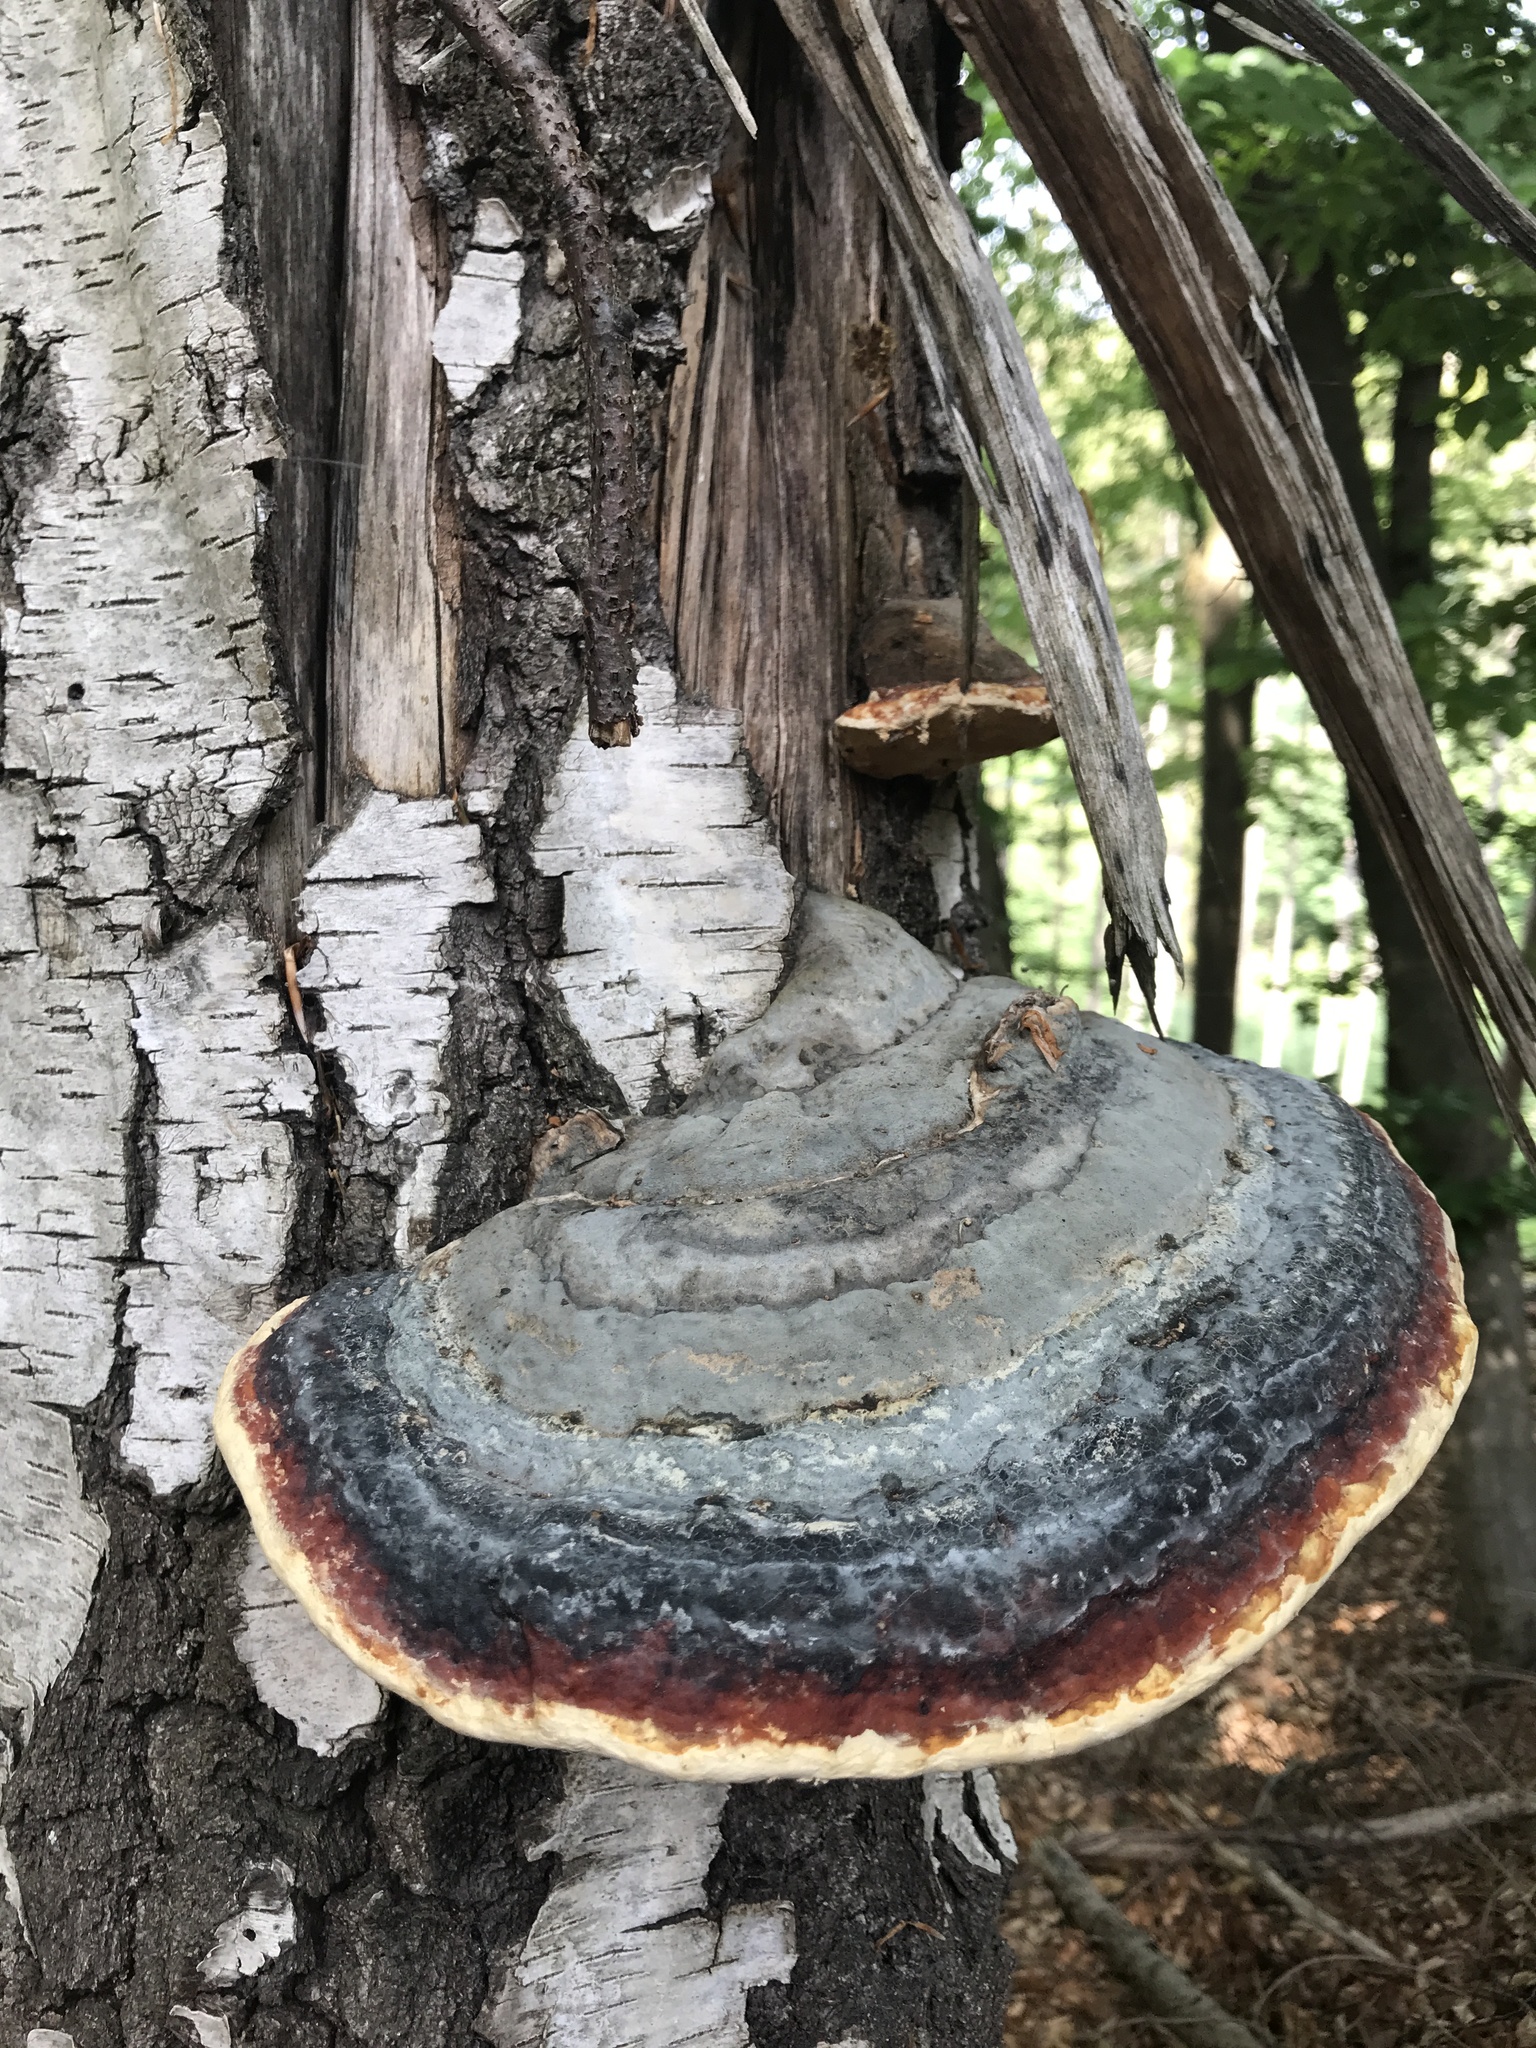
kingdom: Fungi
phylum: Basidiomycota
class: Agaricomycetes
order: Polyporales
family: Fomitopsidaceae
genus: Fomitopsis
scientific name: Fomitopsis pinicola
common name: Red-belted bracket
